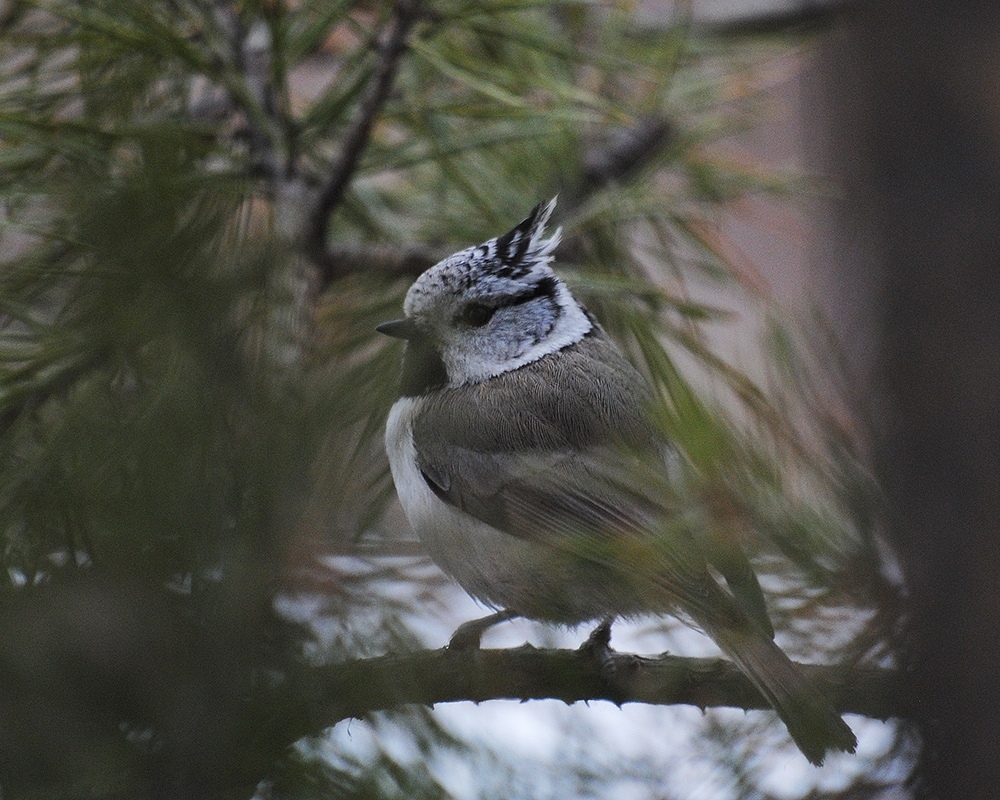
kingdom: Animalia
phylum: Chordata
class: Aves
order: Passeriformes
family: Paridae
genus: Lophophanes
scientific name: Lophophanes cristatus
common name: European crested tit
